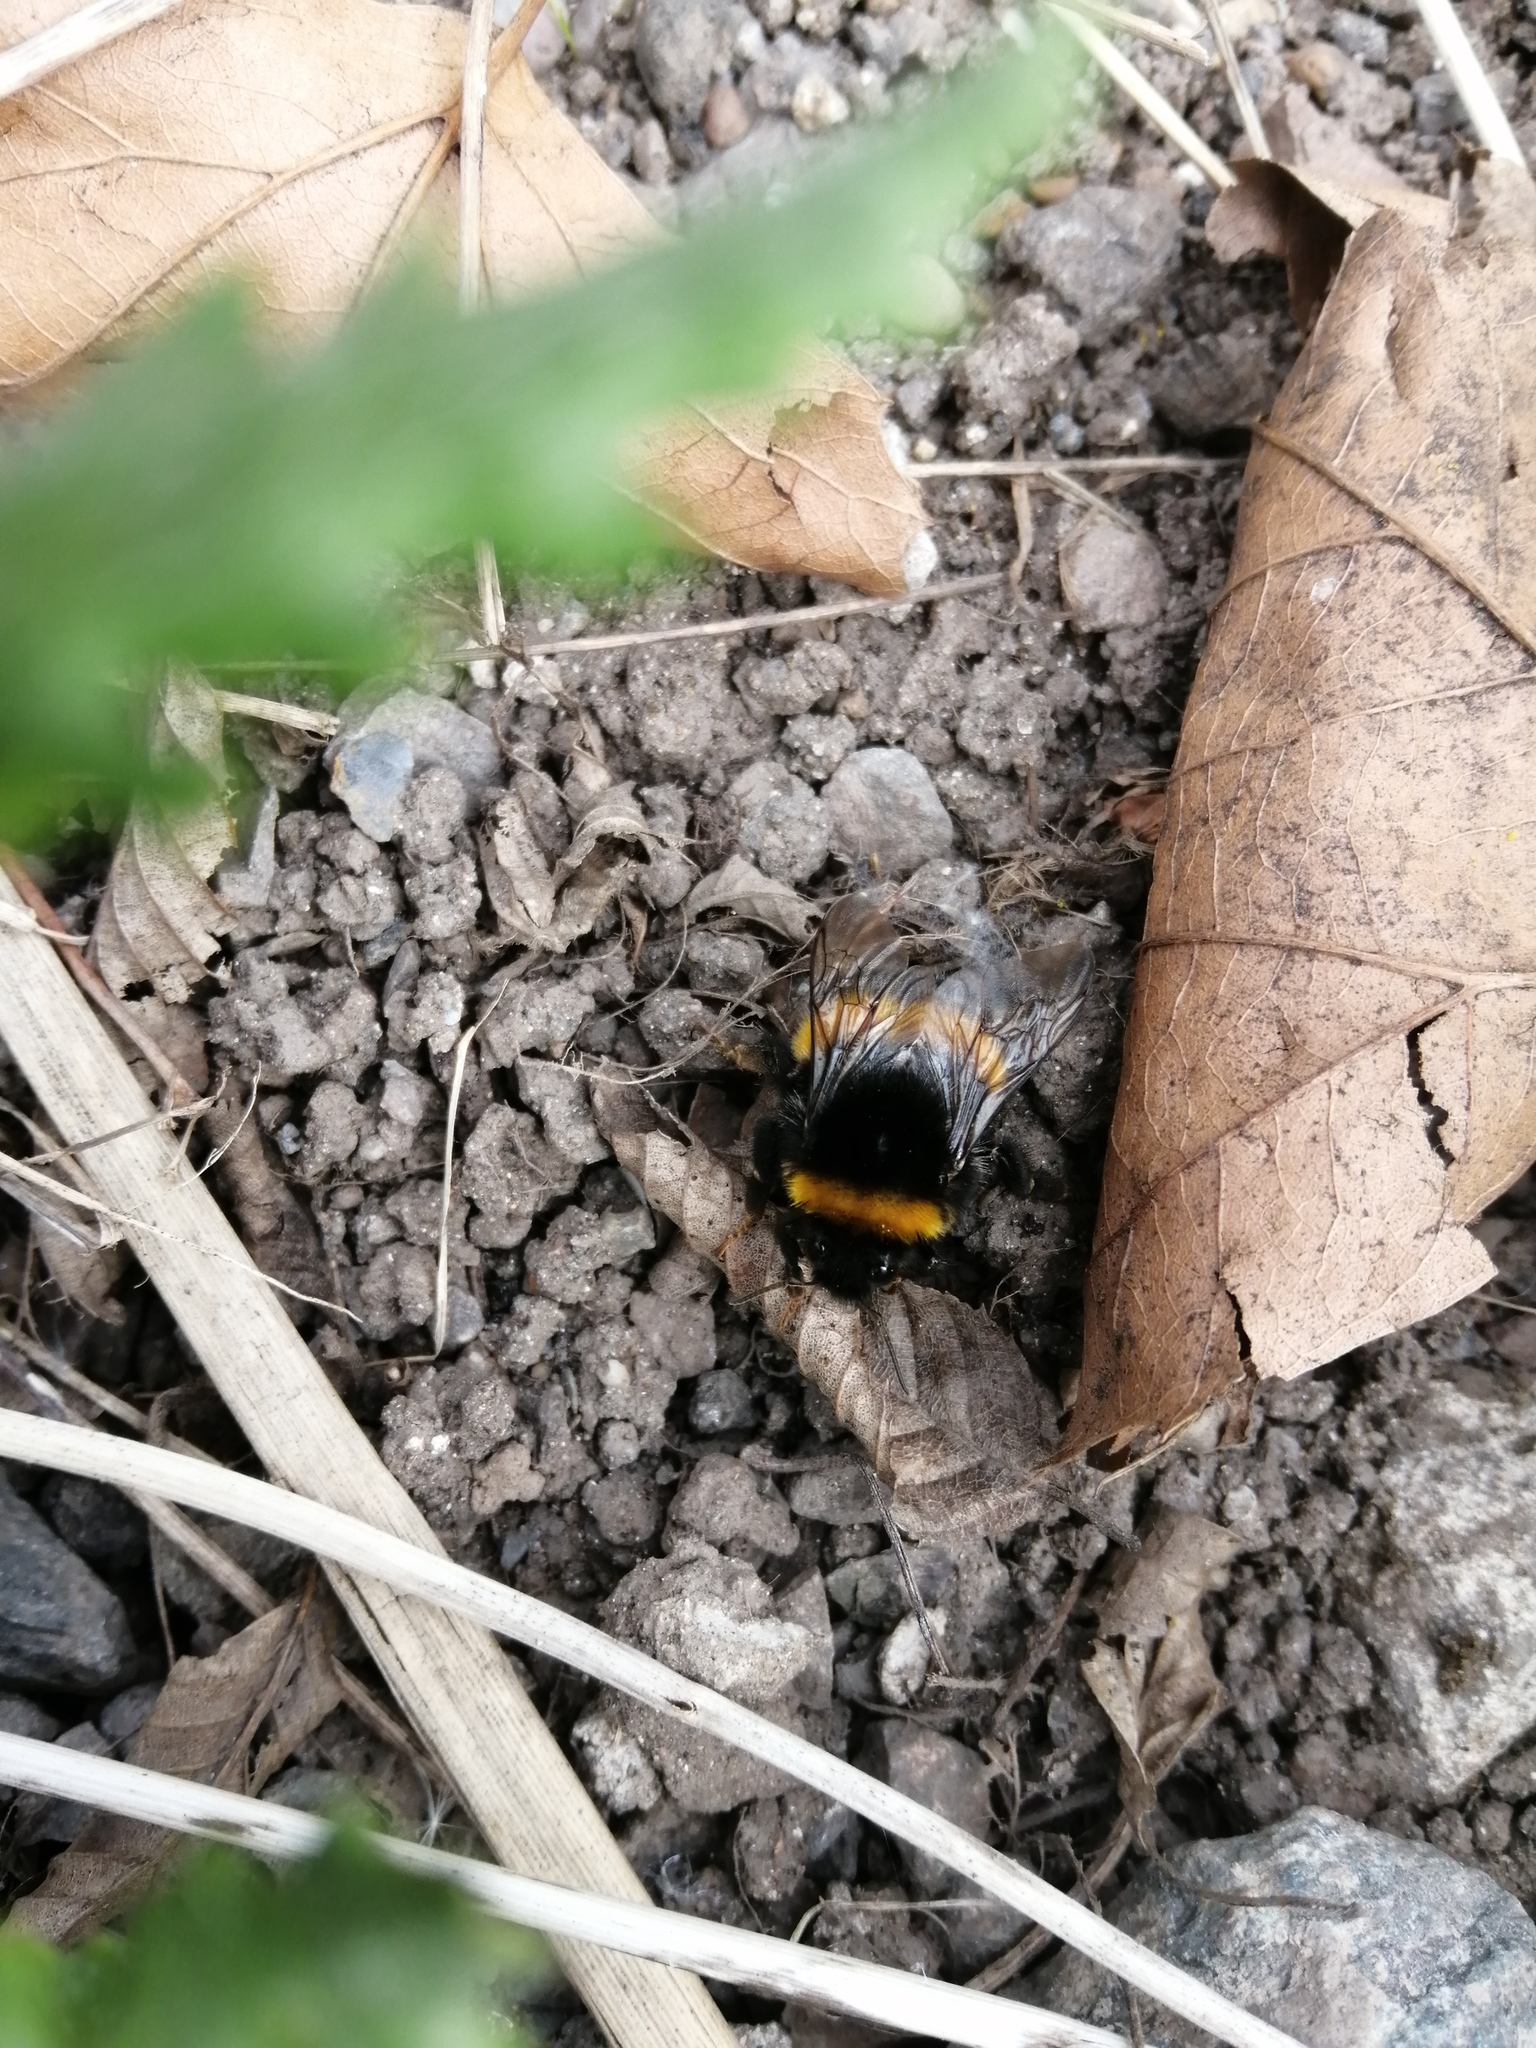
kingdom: Animalia
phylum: Arthropoda
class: Insecta
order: Hymenoptera
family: Apidae
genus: Bombus
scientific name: Bombus terrestris
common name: Buff-tailed bumblebee
